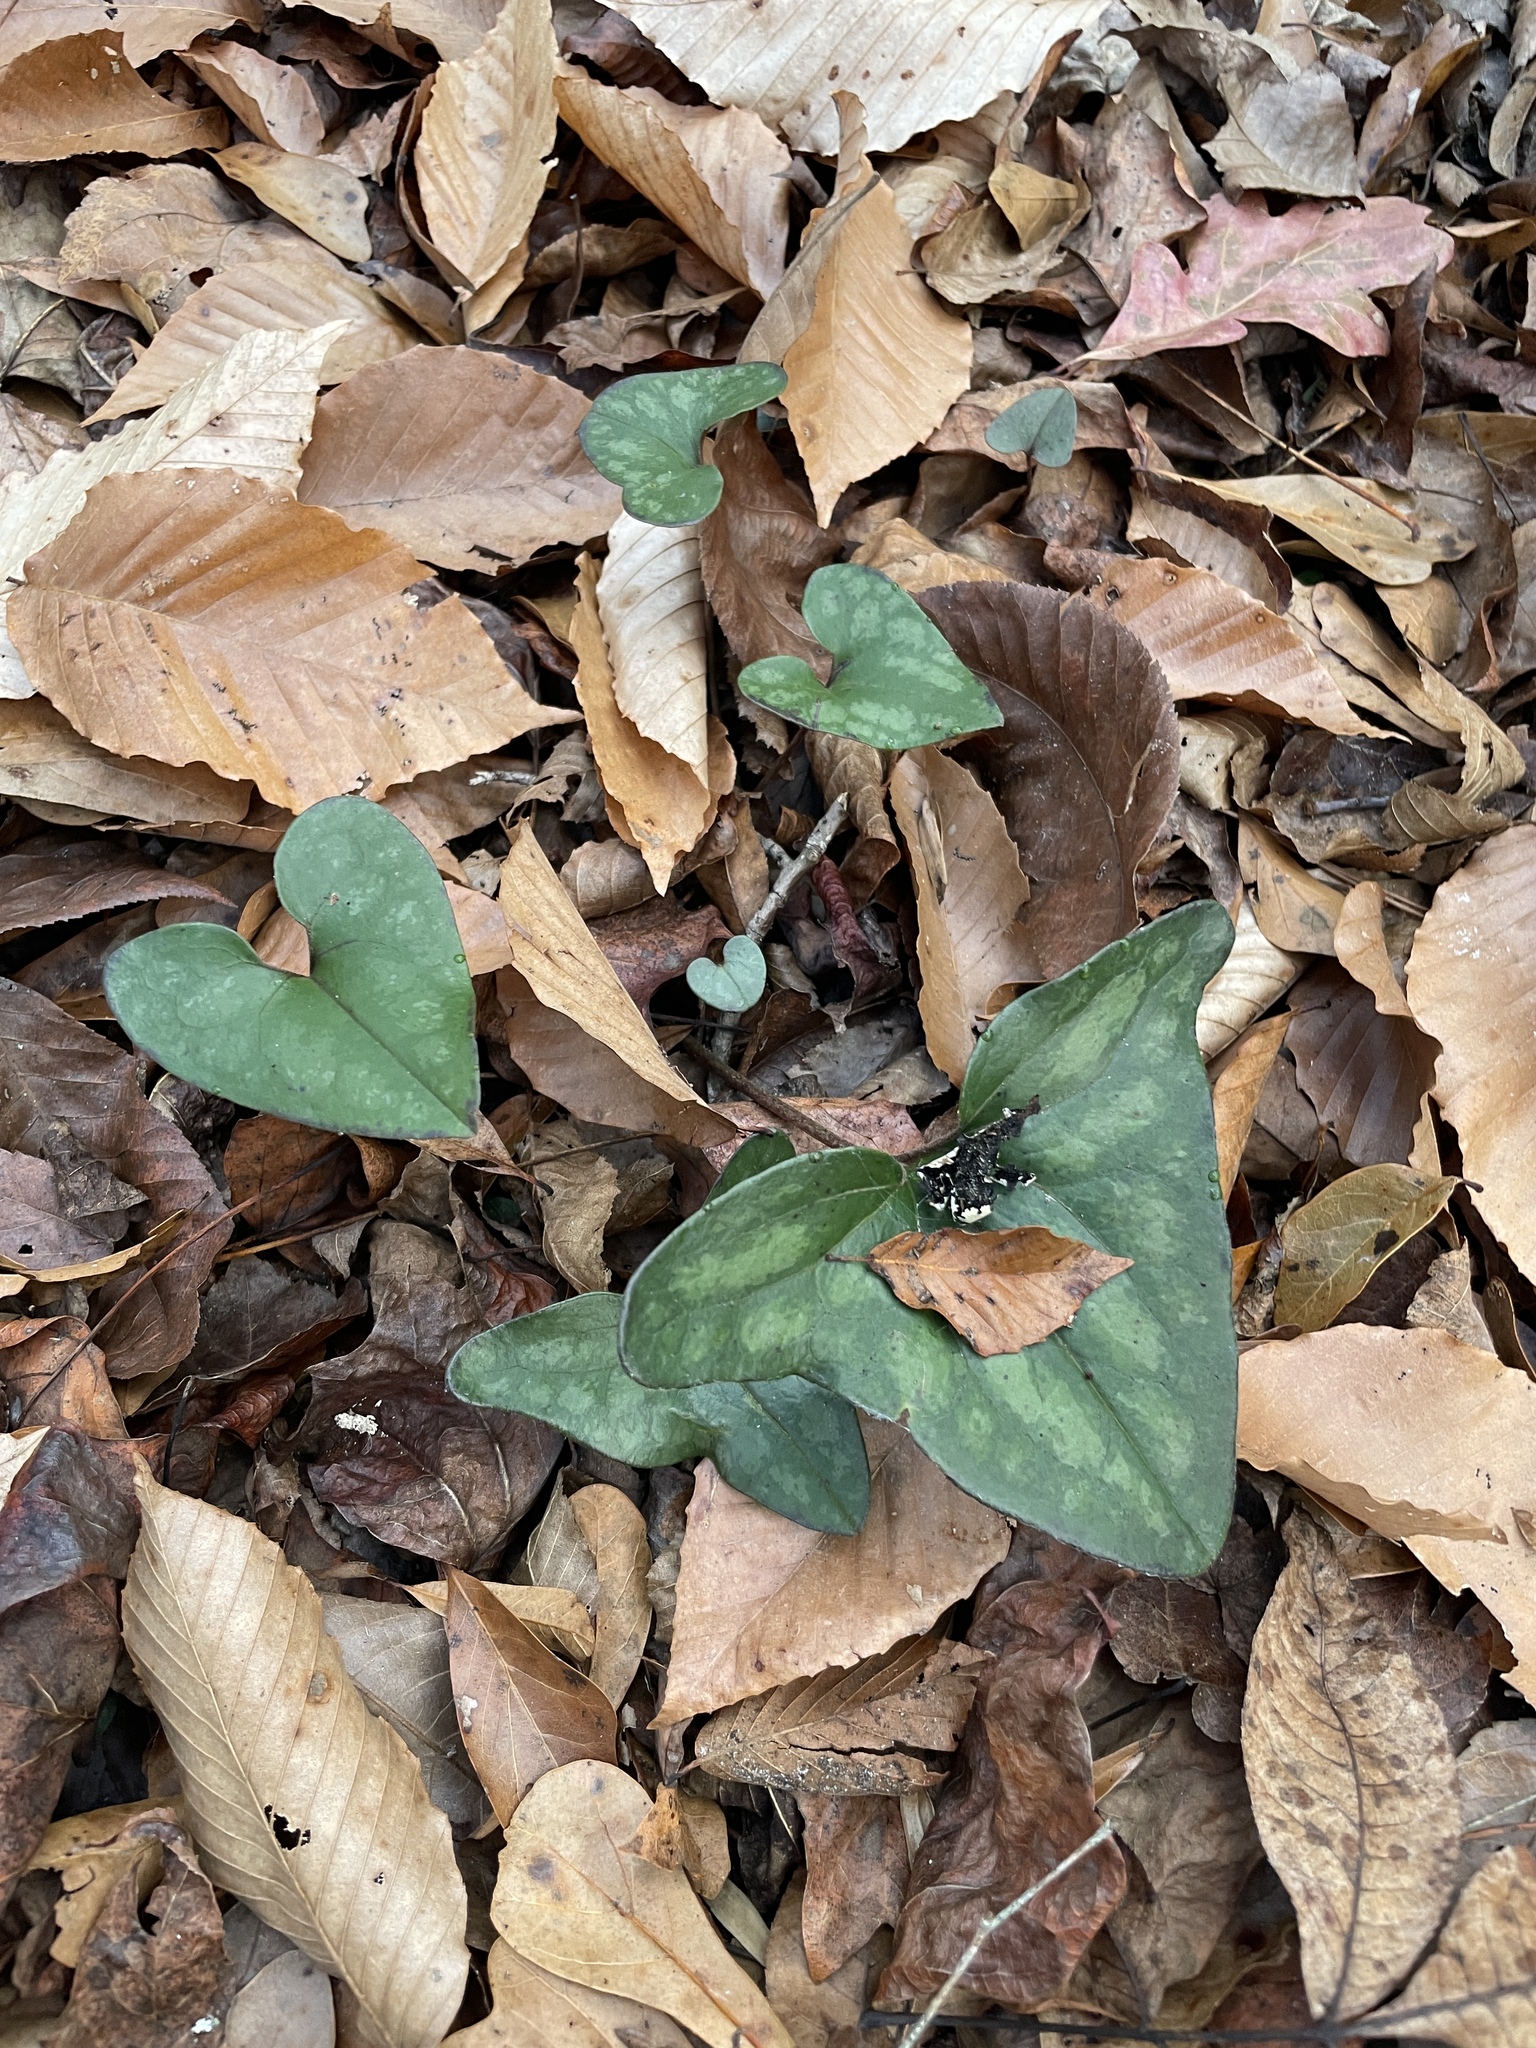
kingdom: Plantae
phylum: Tracheophyta
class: Magnoliopsida
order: Piperales
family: Aristolochiaceae
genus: Hexastylis
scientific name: Hexastylis arifolia
